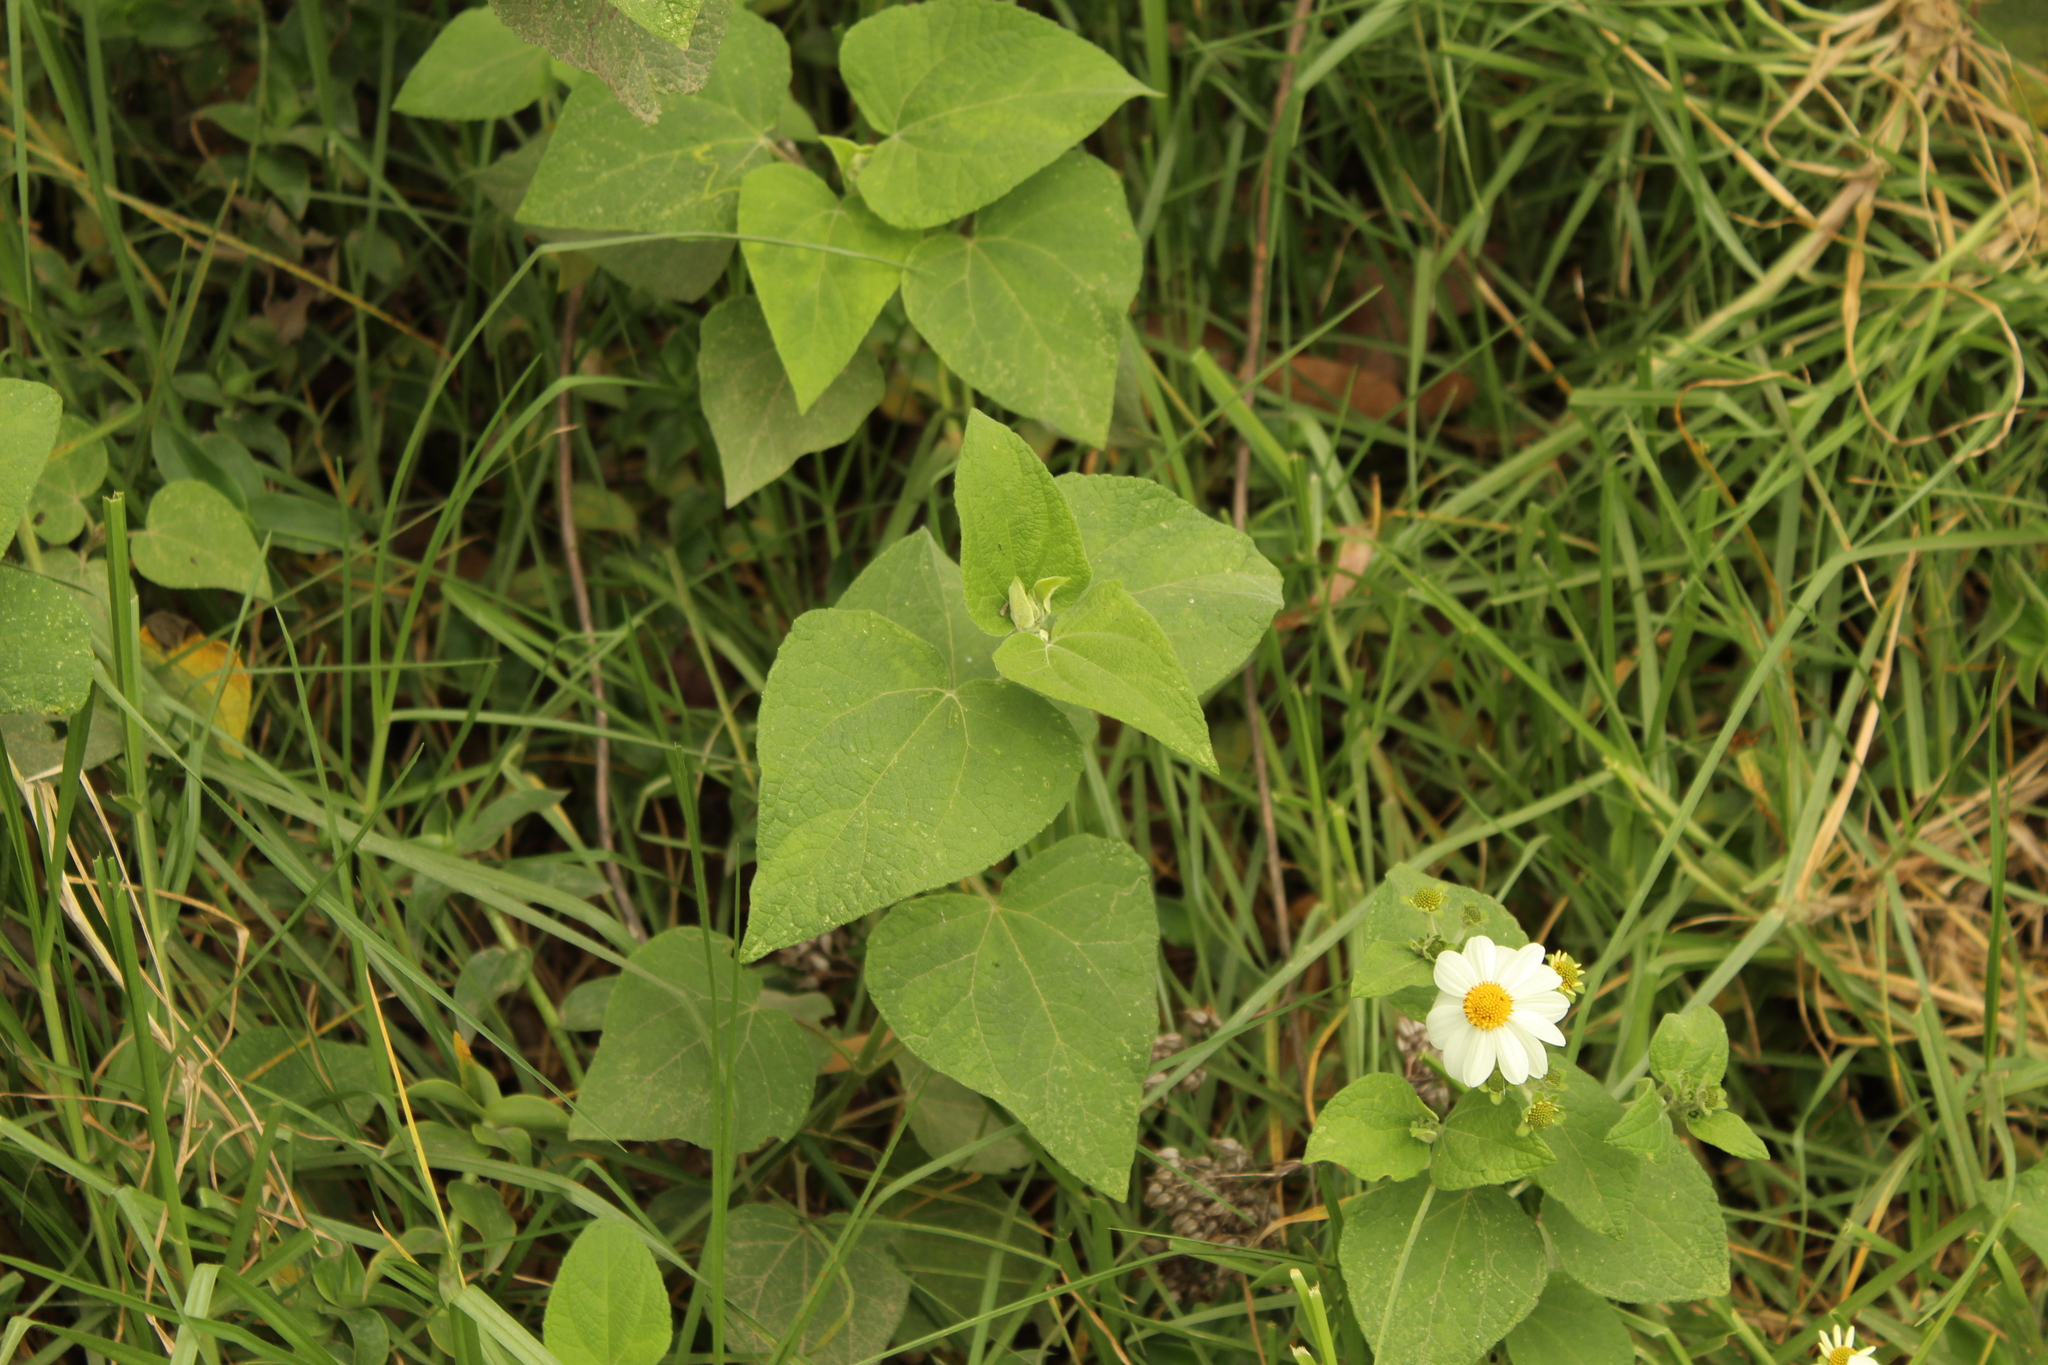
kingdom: Plantae
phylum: Tracheophyta
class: Magnoliopsida
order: Asterales
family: Asteraceae
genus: Montanoa
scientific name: Montanoa ovalifolia
